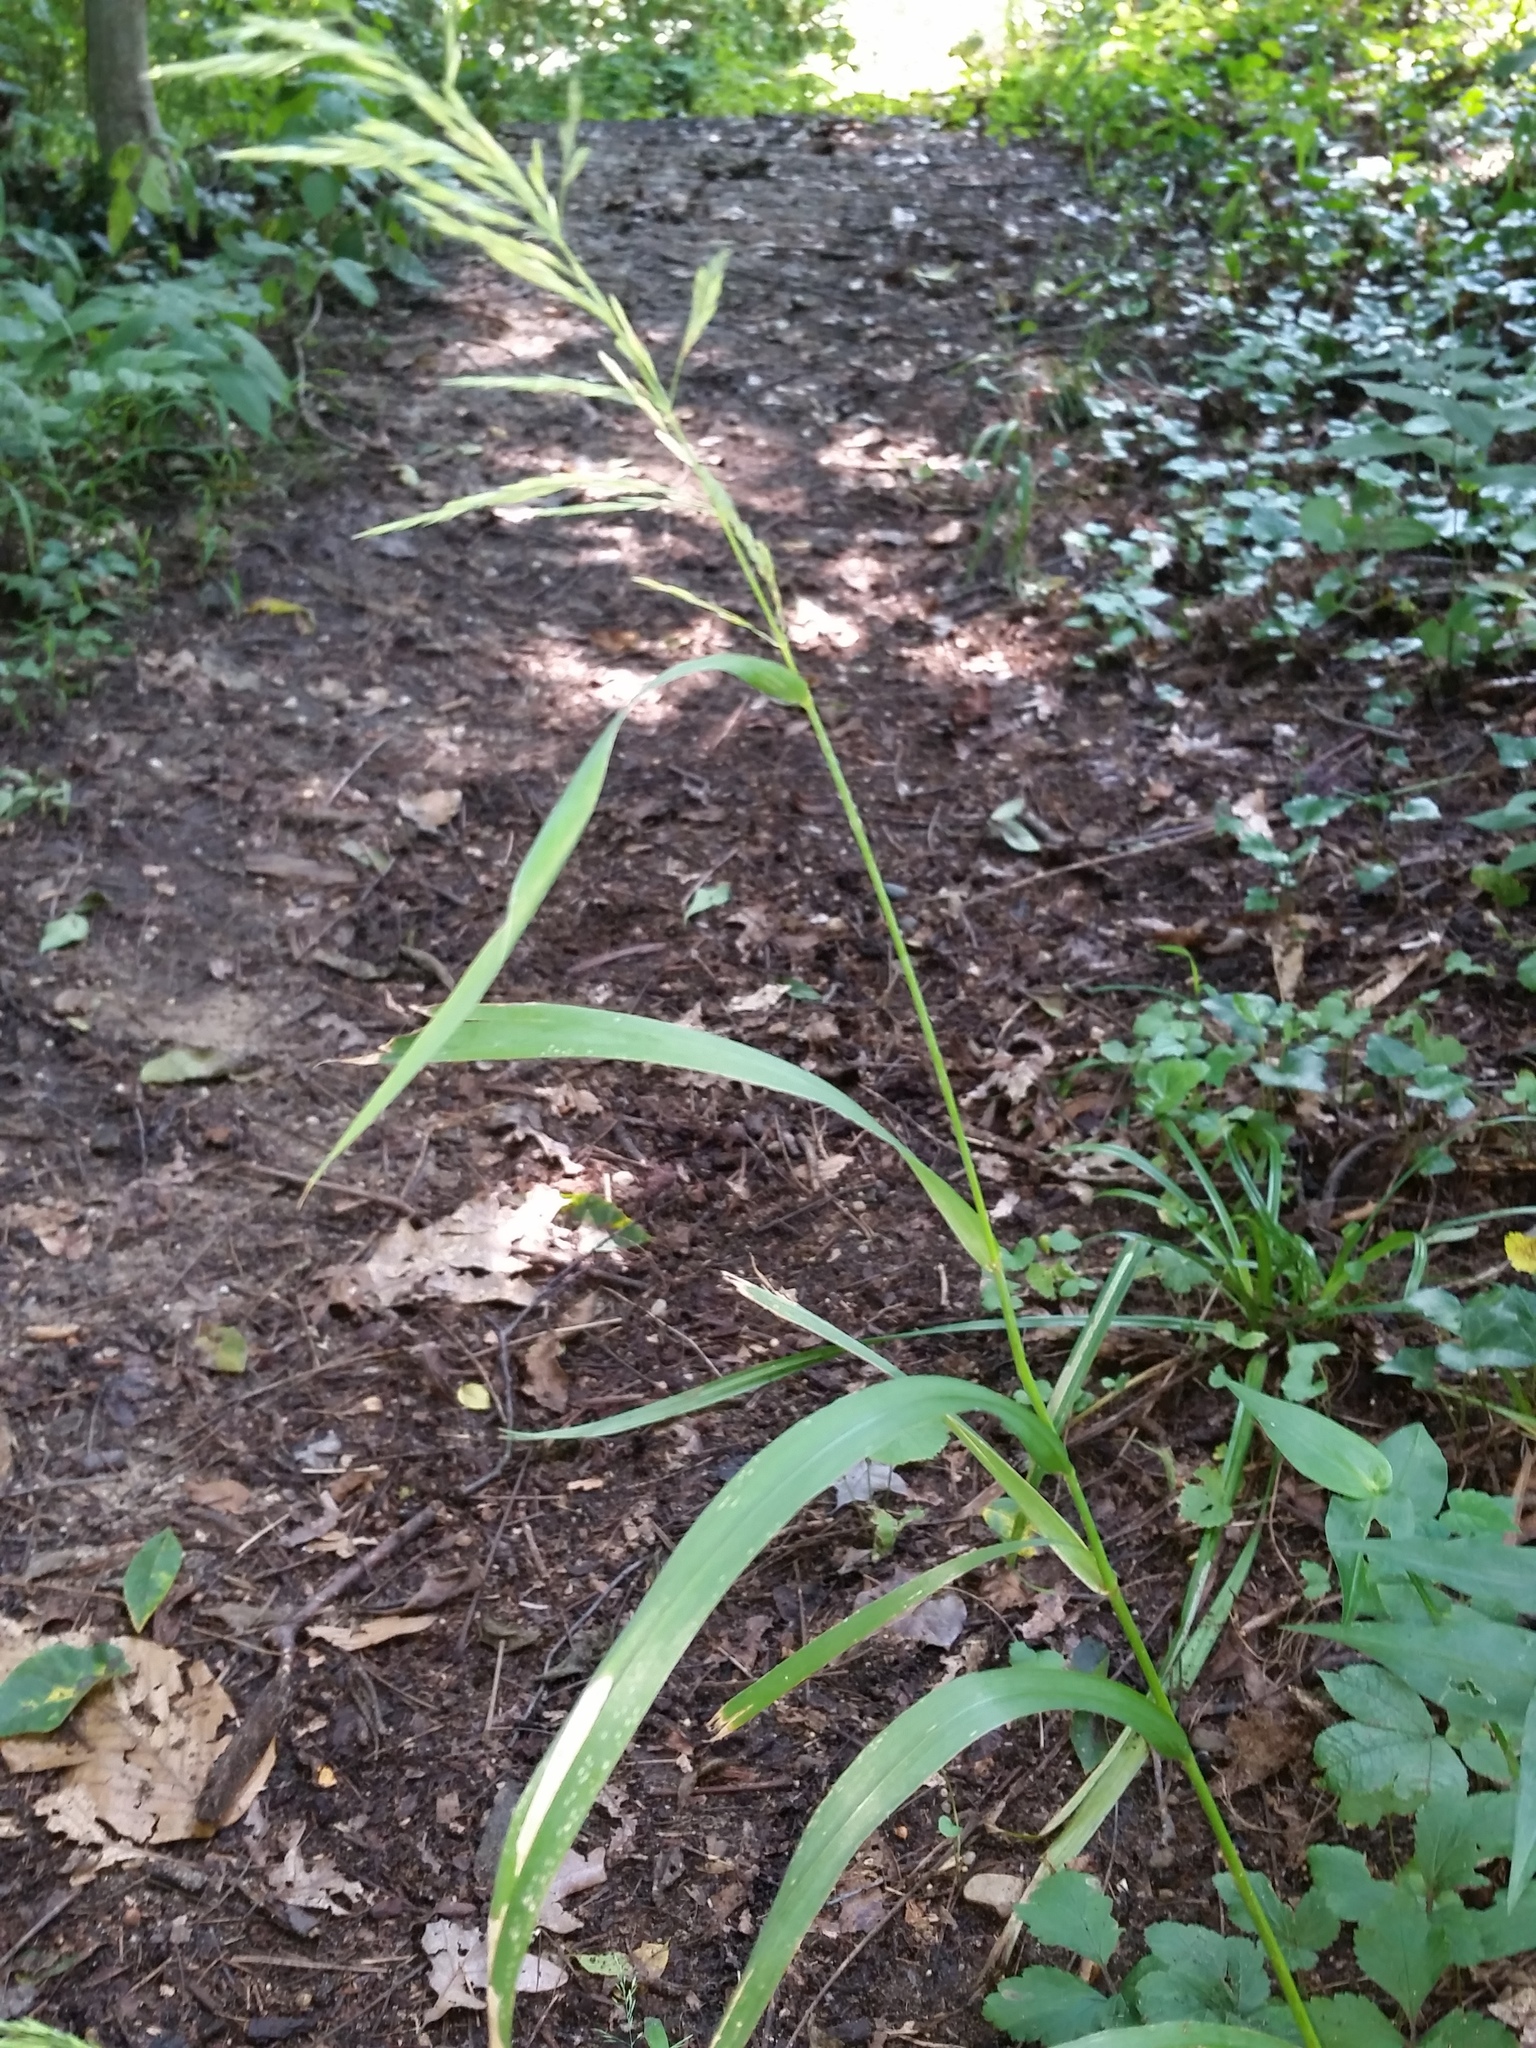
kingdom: Plantae
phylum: Tracheophyta
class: Liliopsida
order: Poales
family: Poaceae
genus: Cinna
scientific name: Cinna arundinacea
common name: Stout woodreed
